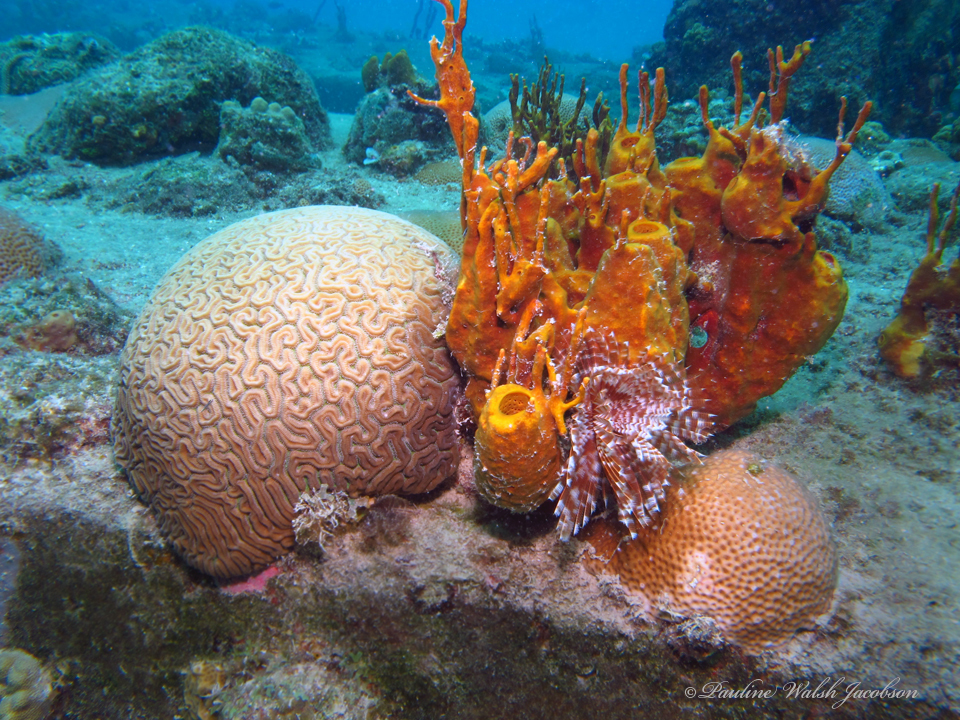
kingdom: Animalia
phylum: Cnidaria
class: Anthozoa
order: Scleractinia
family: Faviidae
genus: Diploria
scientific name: Diploria labyrinthiformis
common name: Grooved brain coral
